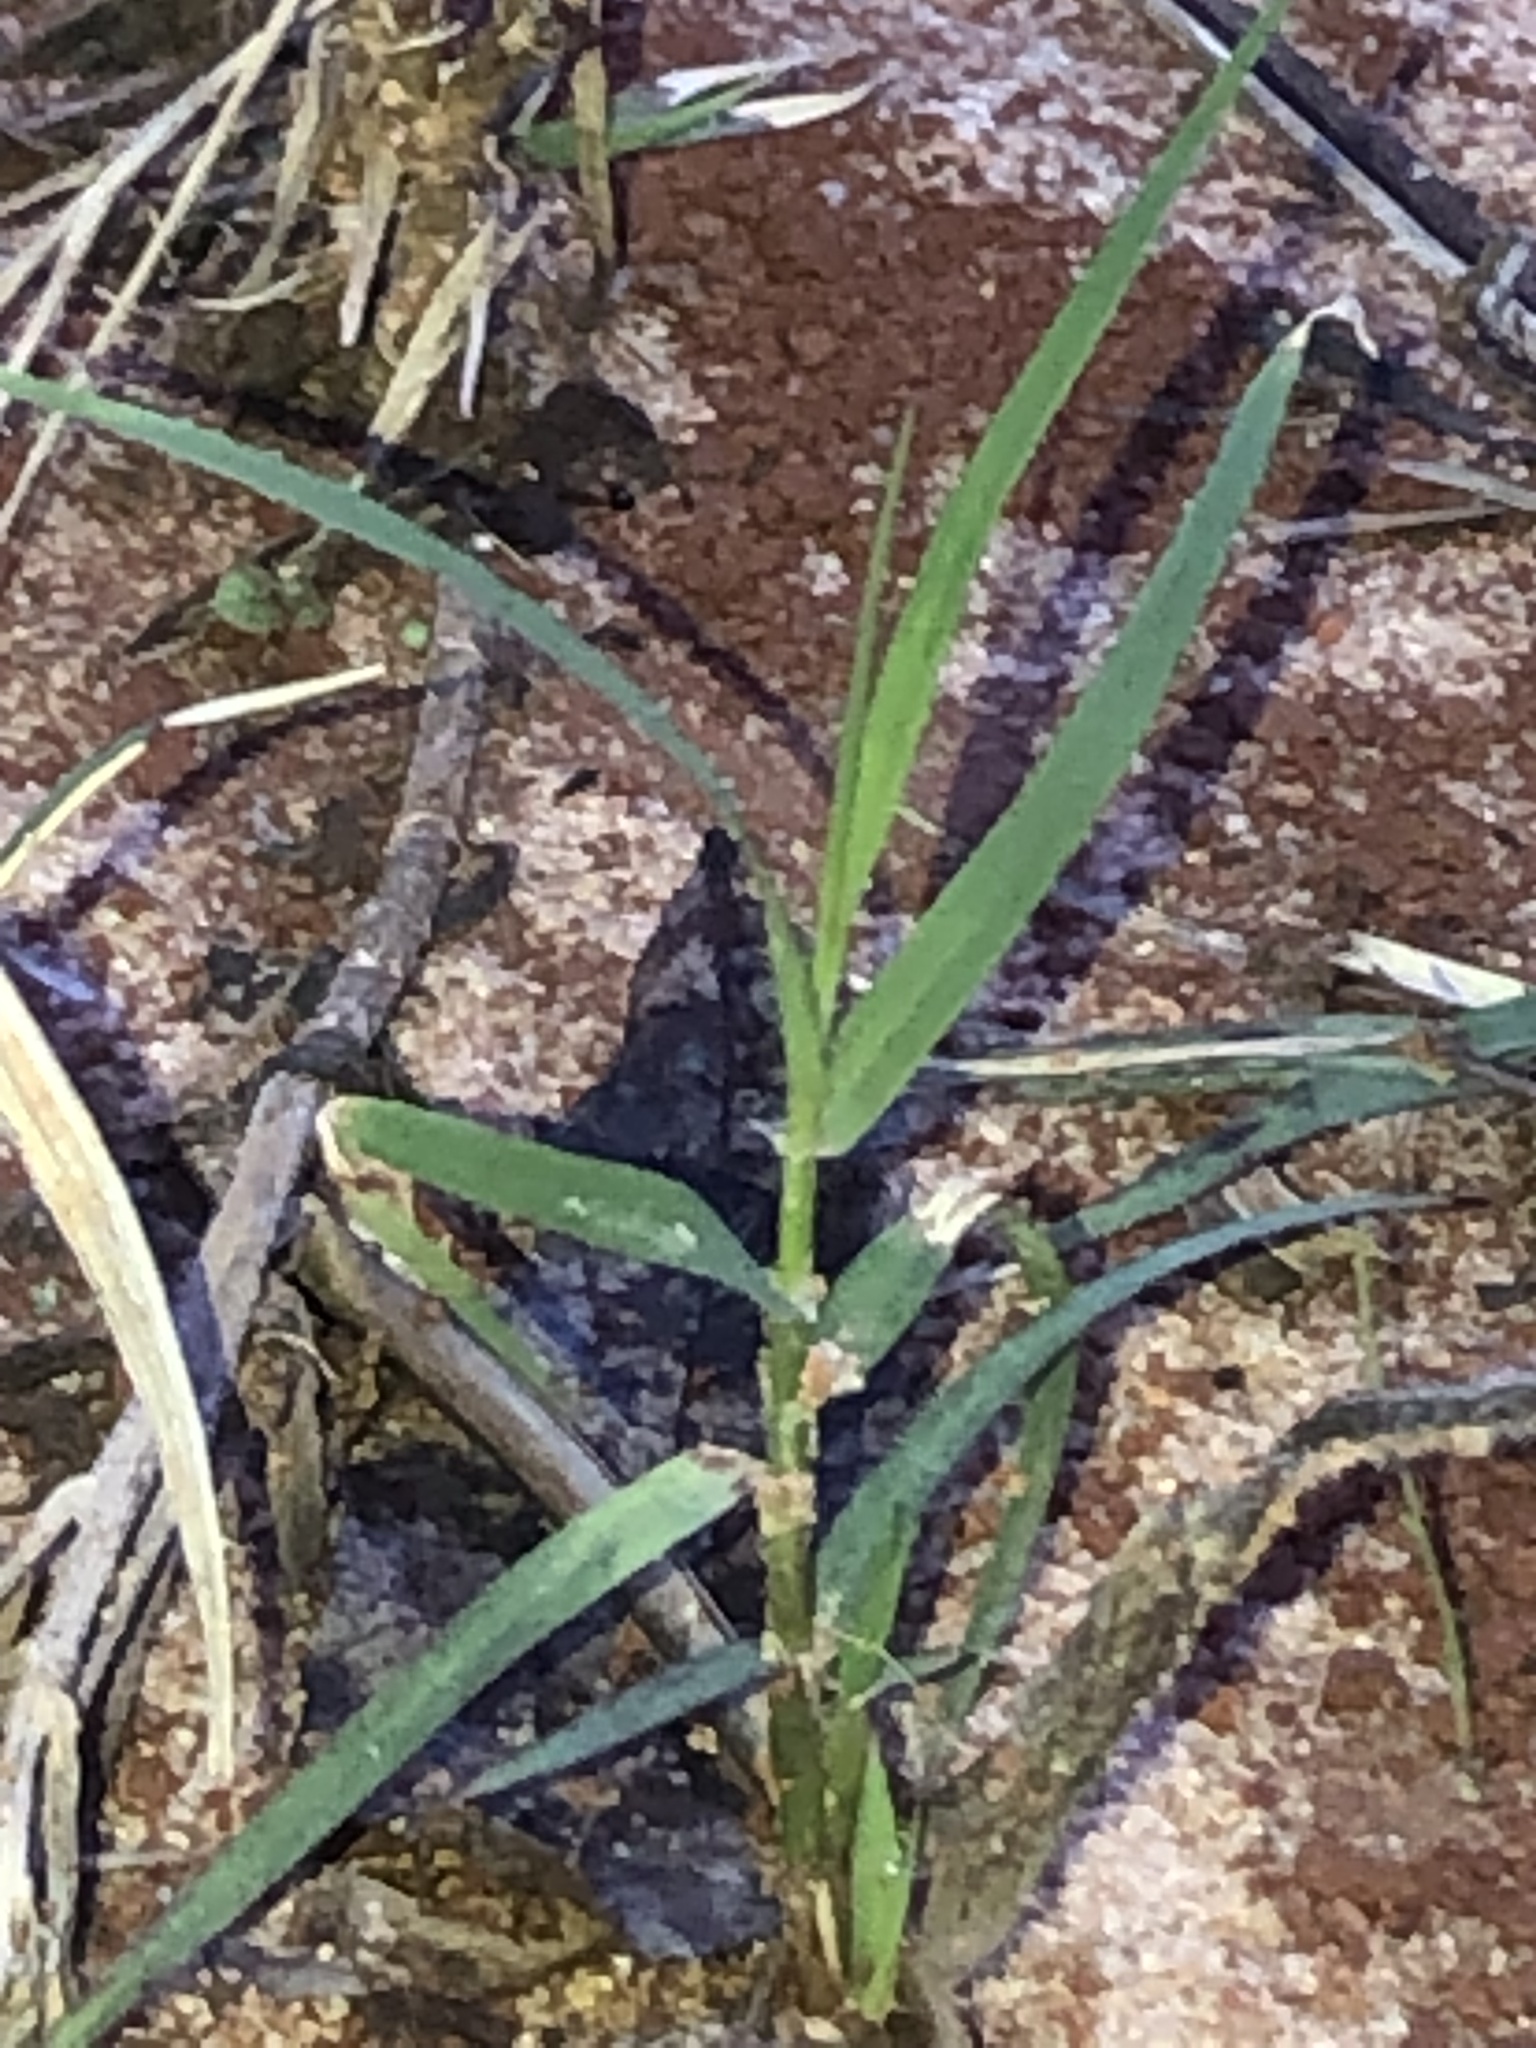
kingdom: Plantae
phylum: Tracheophyta
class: Liliopsida
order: Poales
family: Poaceae
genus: Cynodon
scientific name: Cynodon dactylon
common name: Bermuda grass
